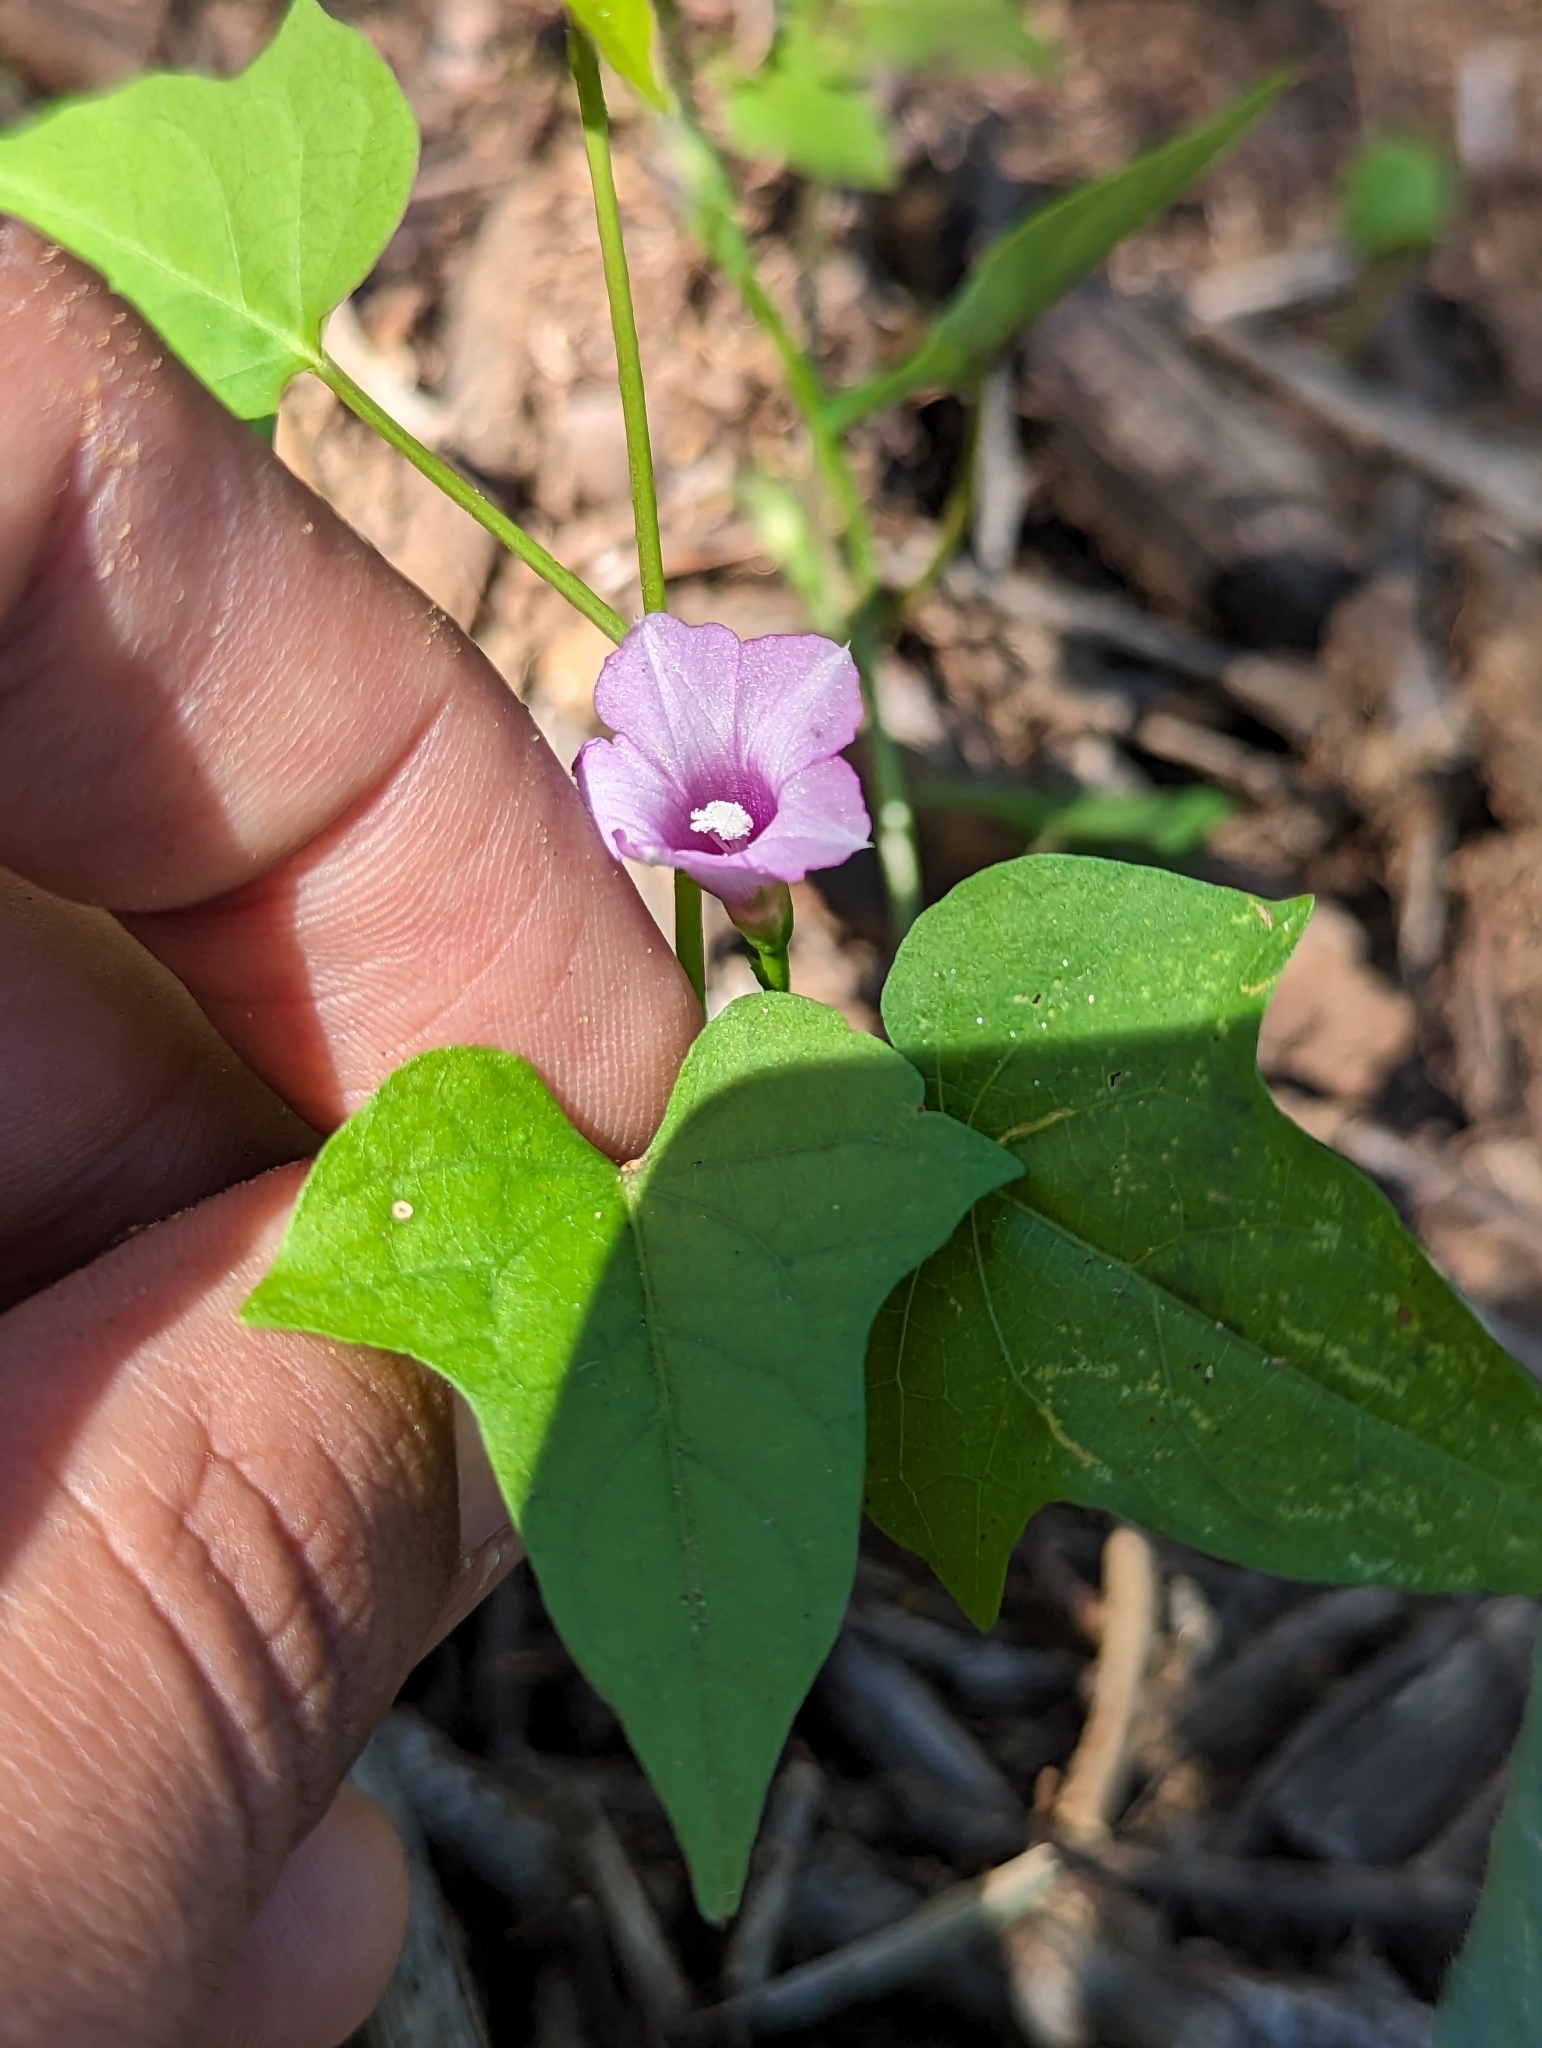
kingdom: Plantae
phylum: Tracheophyta
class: Magnoliopsida
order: Solanales
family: Convolvulaceae
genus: Ipomoea
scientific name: Ipomoea triloba
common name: Little-bell
